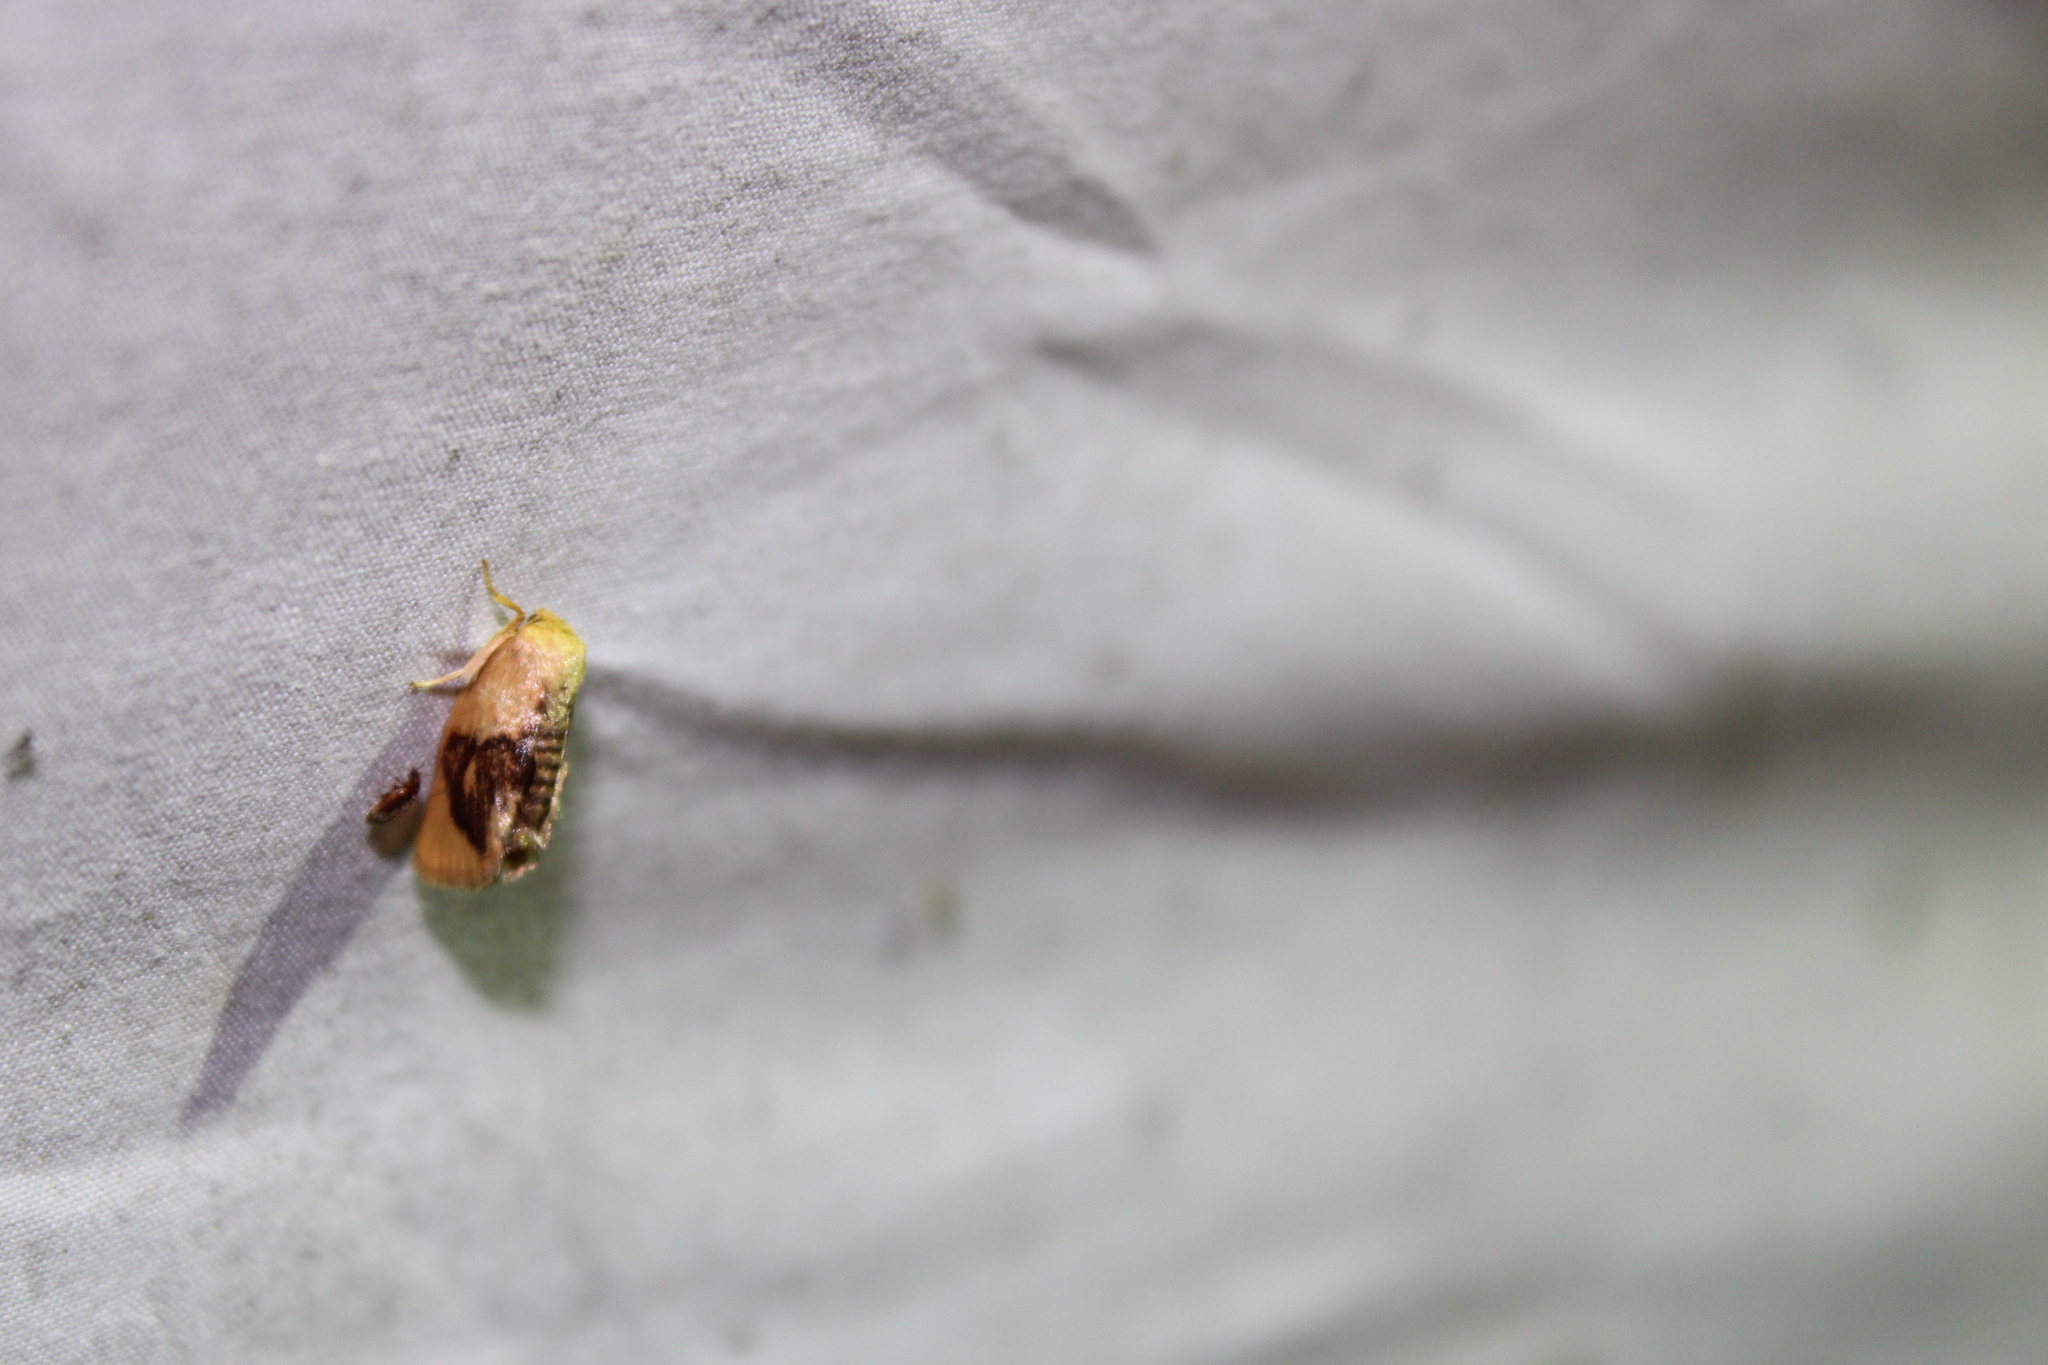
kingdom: Animalia
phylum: Arthropoda
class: Insecta
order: Lepidoptera
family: Limacodidae
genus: Tortricidia
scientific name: Tortricidia flexuosa
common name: Abbreviated button slug moth
